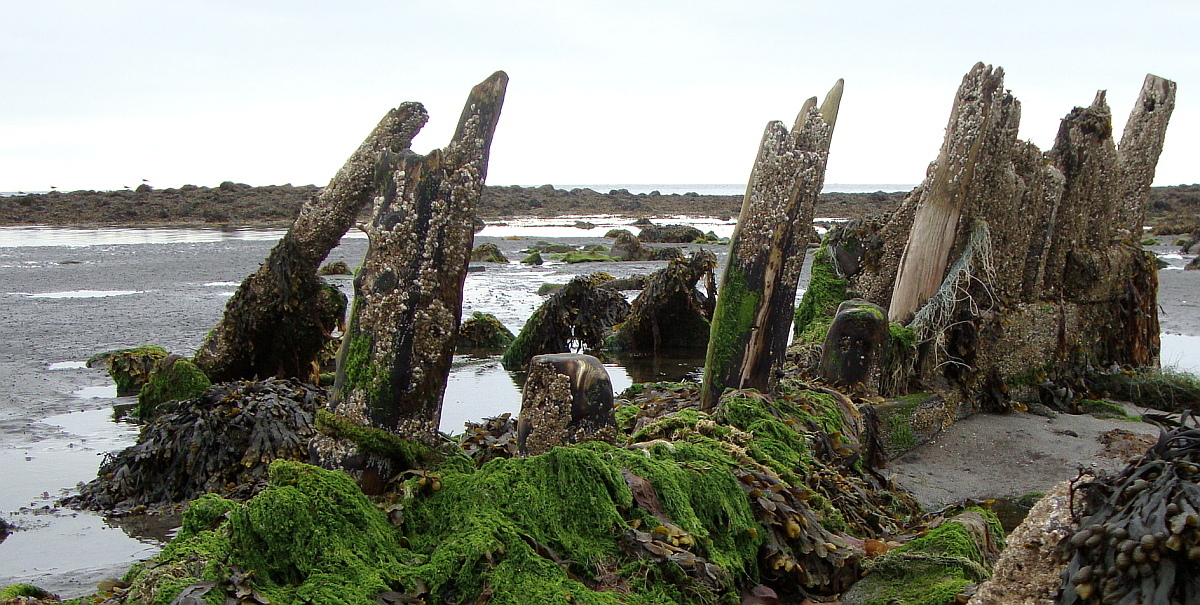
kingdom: Animalia
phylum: Arthropoda
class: Maxillopoda
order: Sessilia
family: Archaeobalanidae
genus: Semibalanus
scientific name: Semibalanus balanoides
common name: Acorn barnacle
